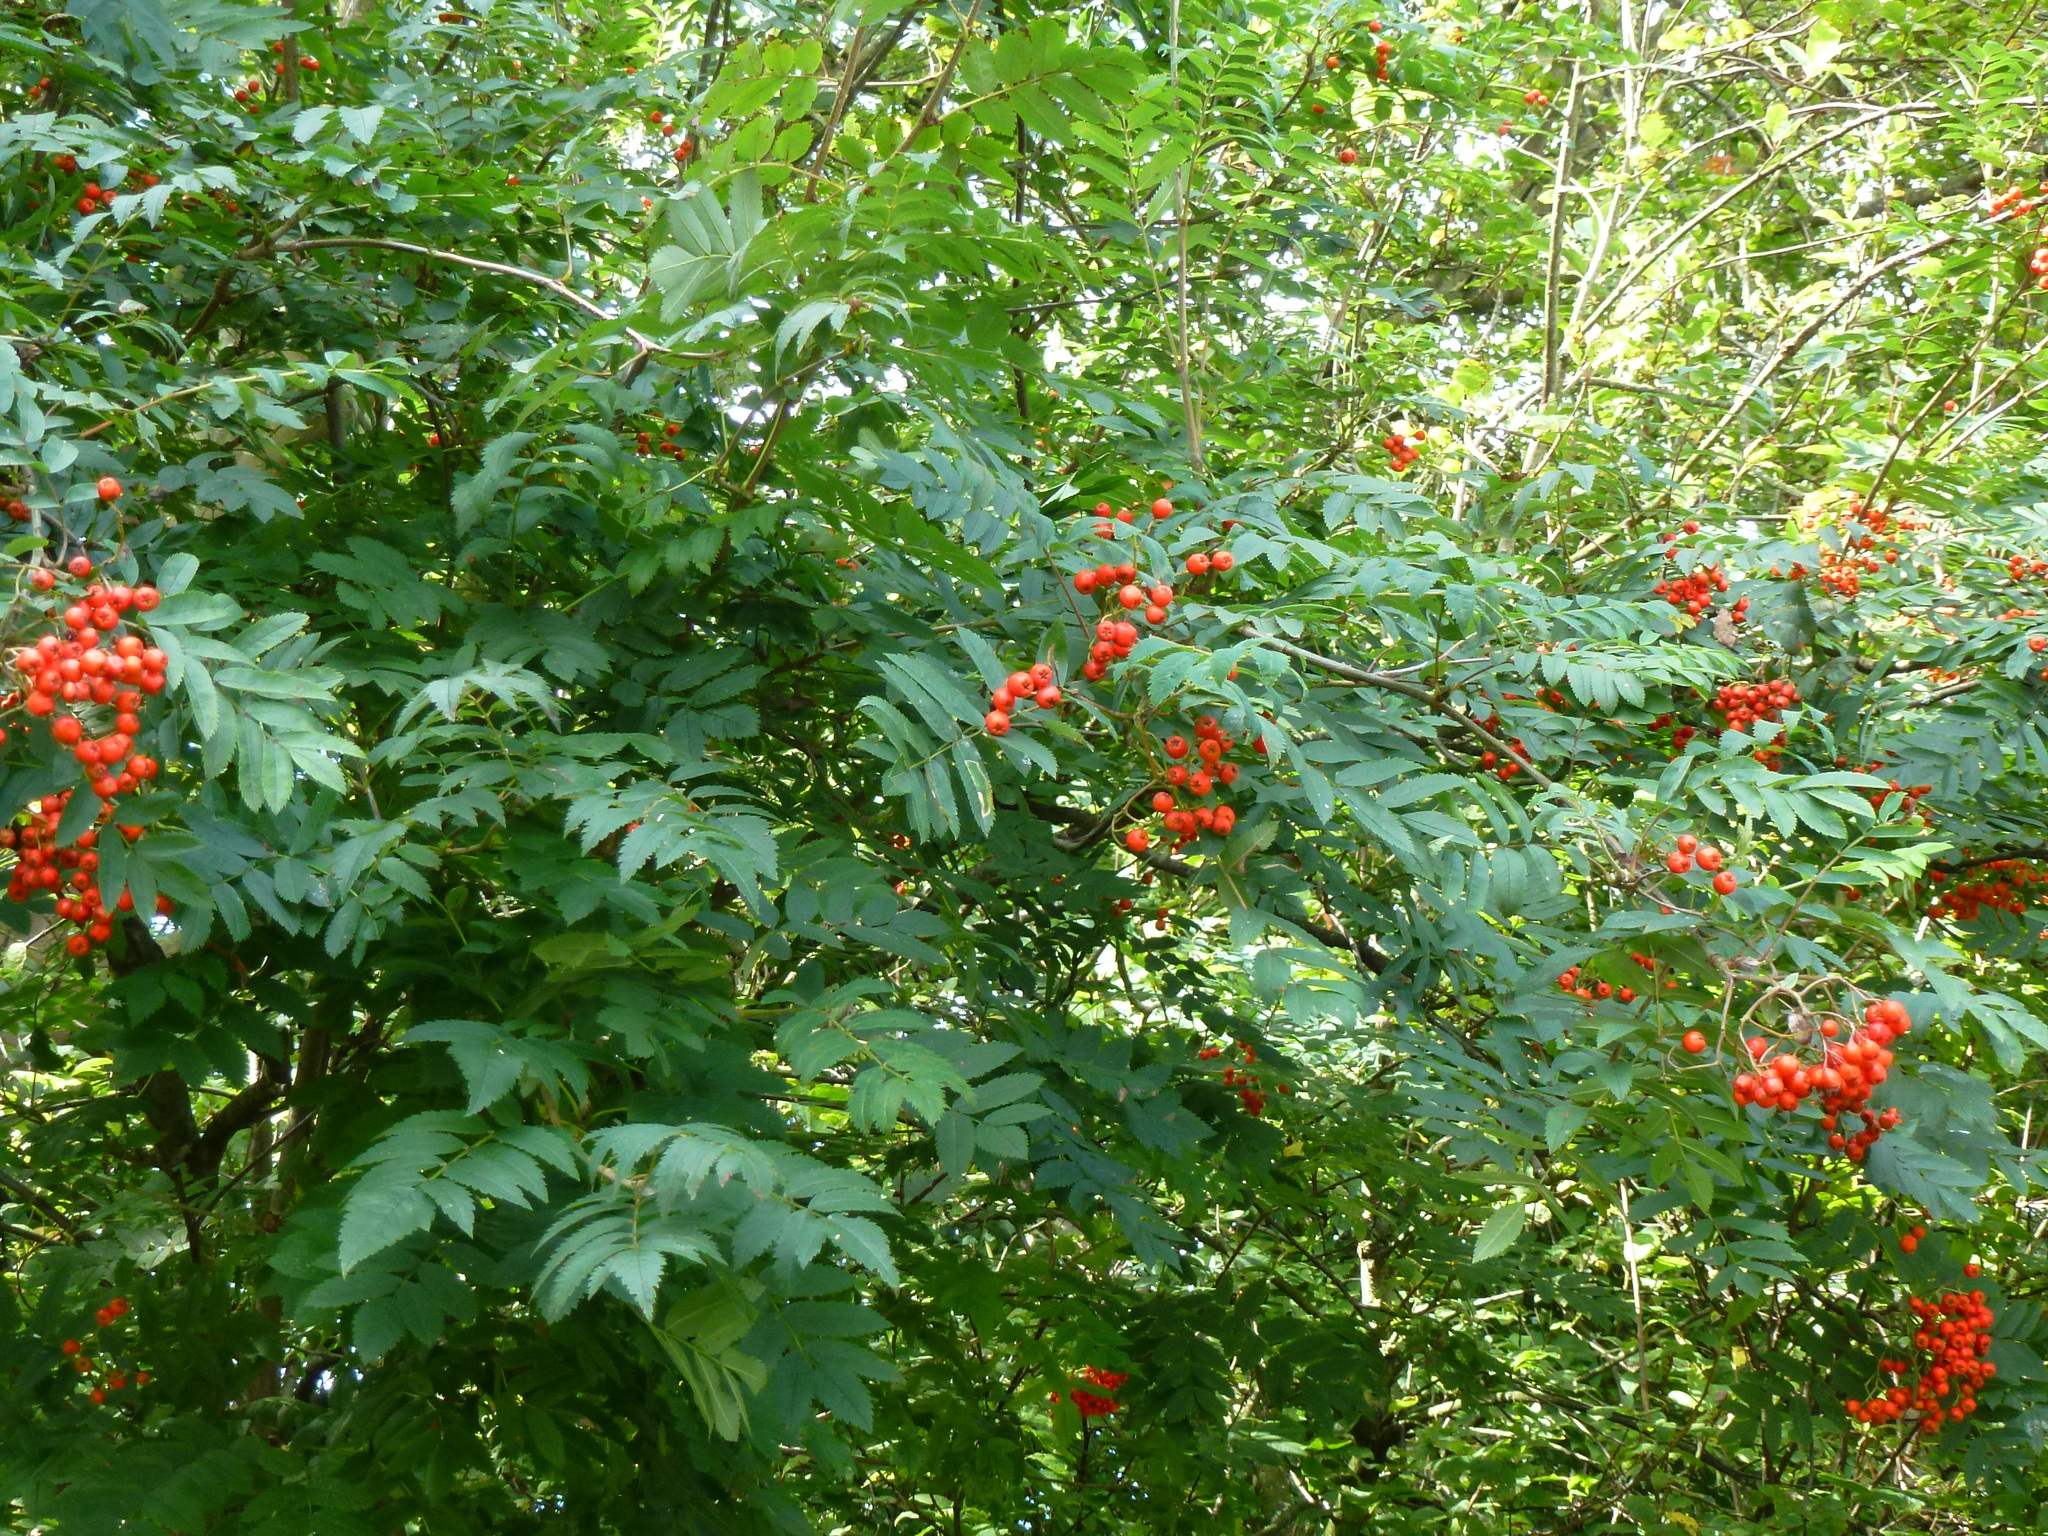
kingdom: Plantae
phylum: Tracheophyta
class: Magnoliopsida
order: Rosales
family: Rosaceae
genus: Sorbus
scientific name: Sorbus aucuparia
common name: Rowan
